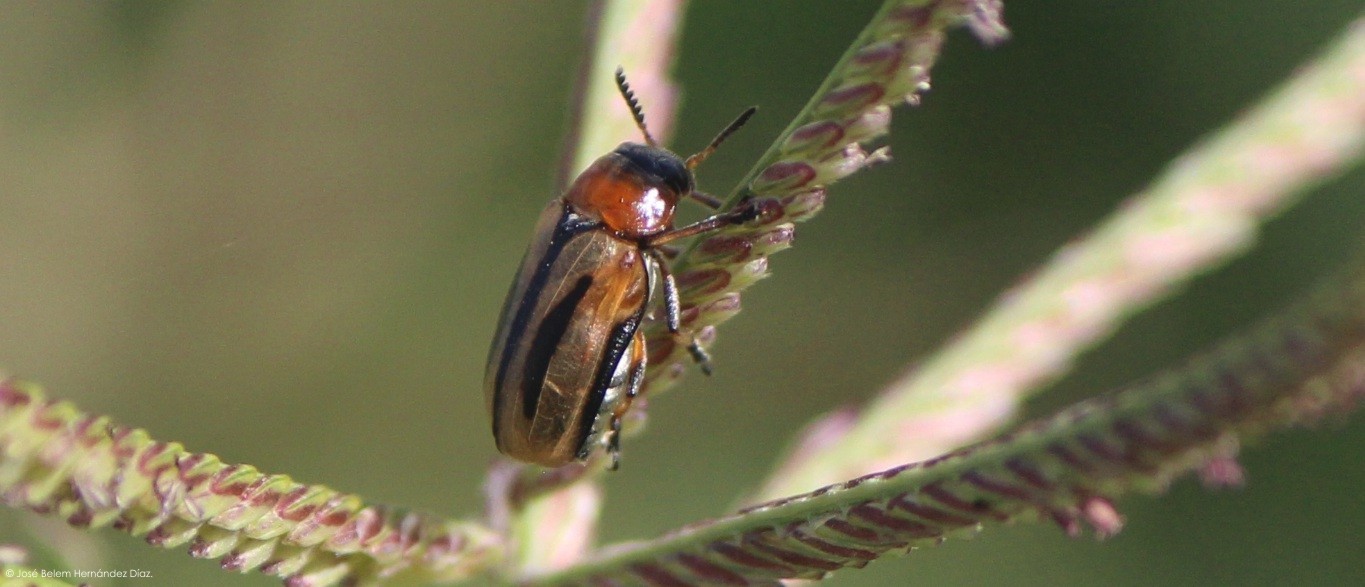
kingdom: Animalia
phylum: Arthropoda
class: Insecta
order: Coleoptera
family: Chrysomelidae
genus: Anomoea
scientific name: Anomoea rufifrons
